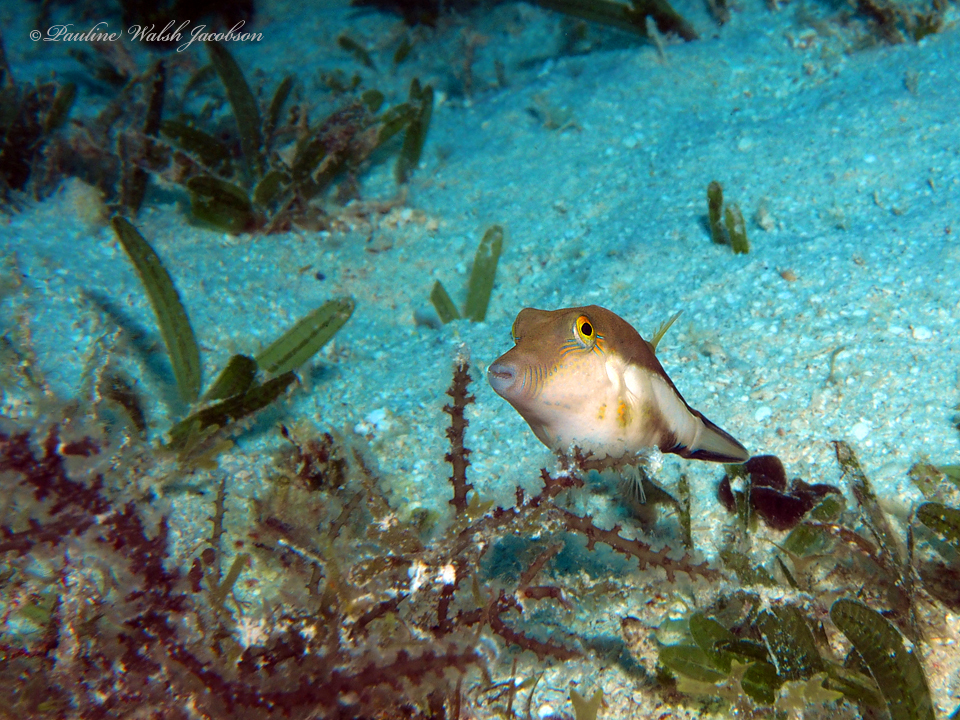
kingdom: Animalia
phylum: Chordata
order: Tetraodontiformes
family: Tetraodontidae
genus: Canthigaster
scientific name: Canthigaster rostrata
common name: Caribbean sharpnose-puffer
